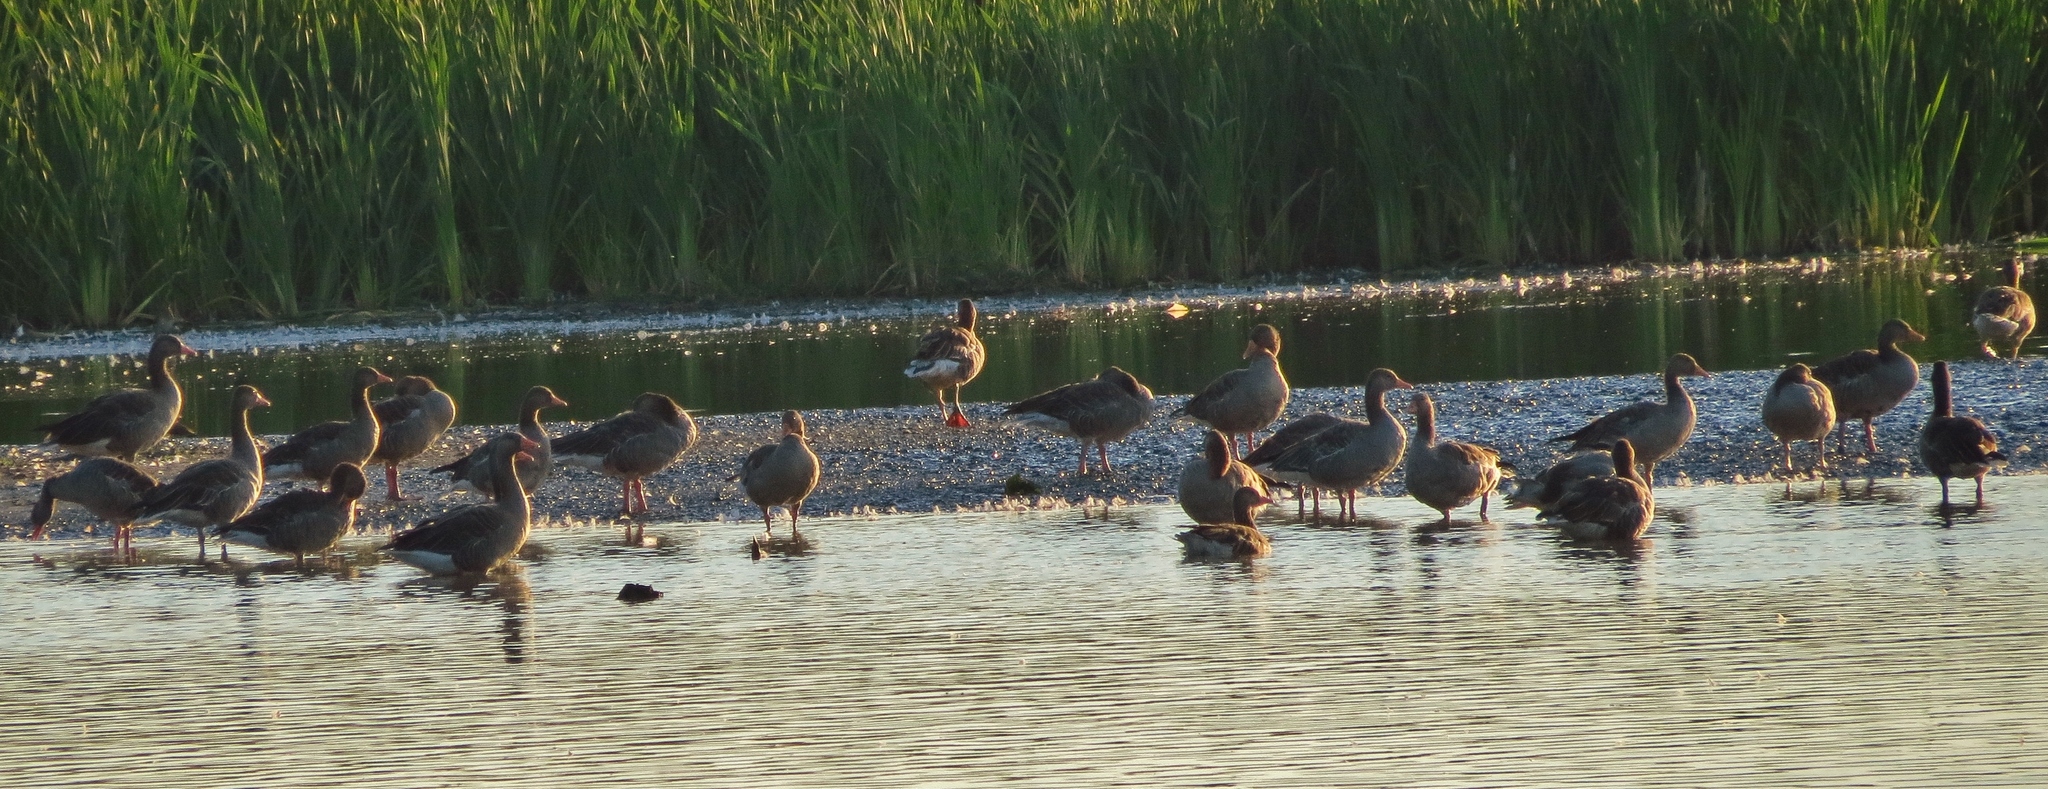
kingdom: Animalia
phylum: Chordata
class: Aves
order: Anseriformes
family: Anatidae
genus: Anser
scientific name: Anser anser
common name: Greylag goose
